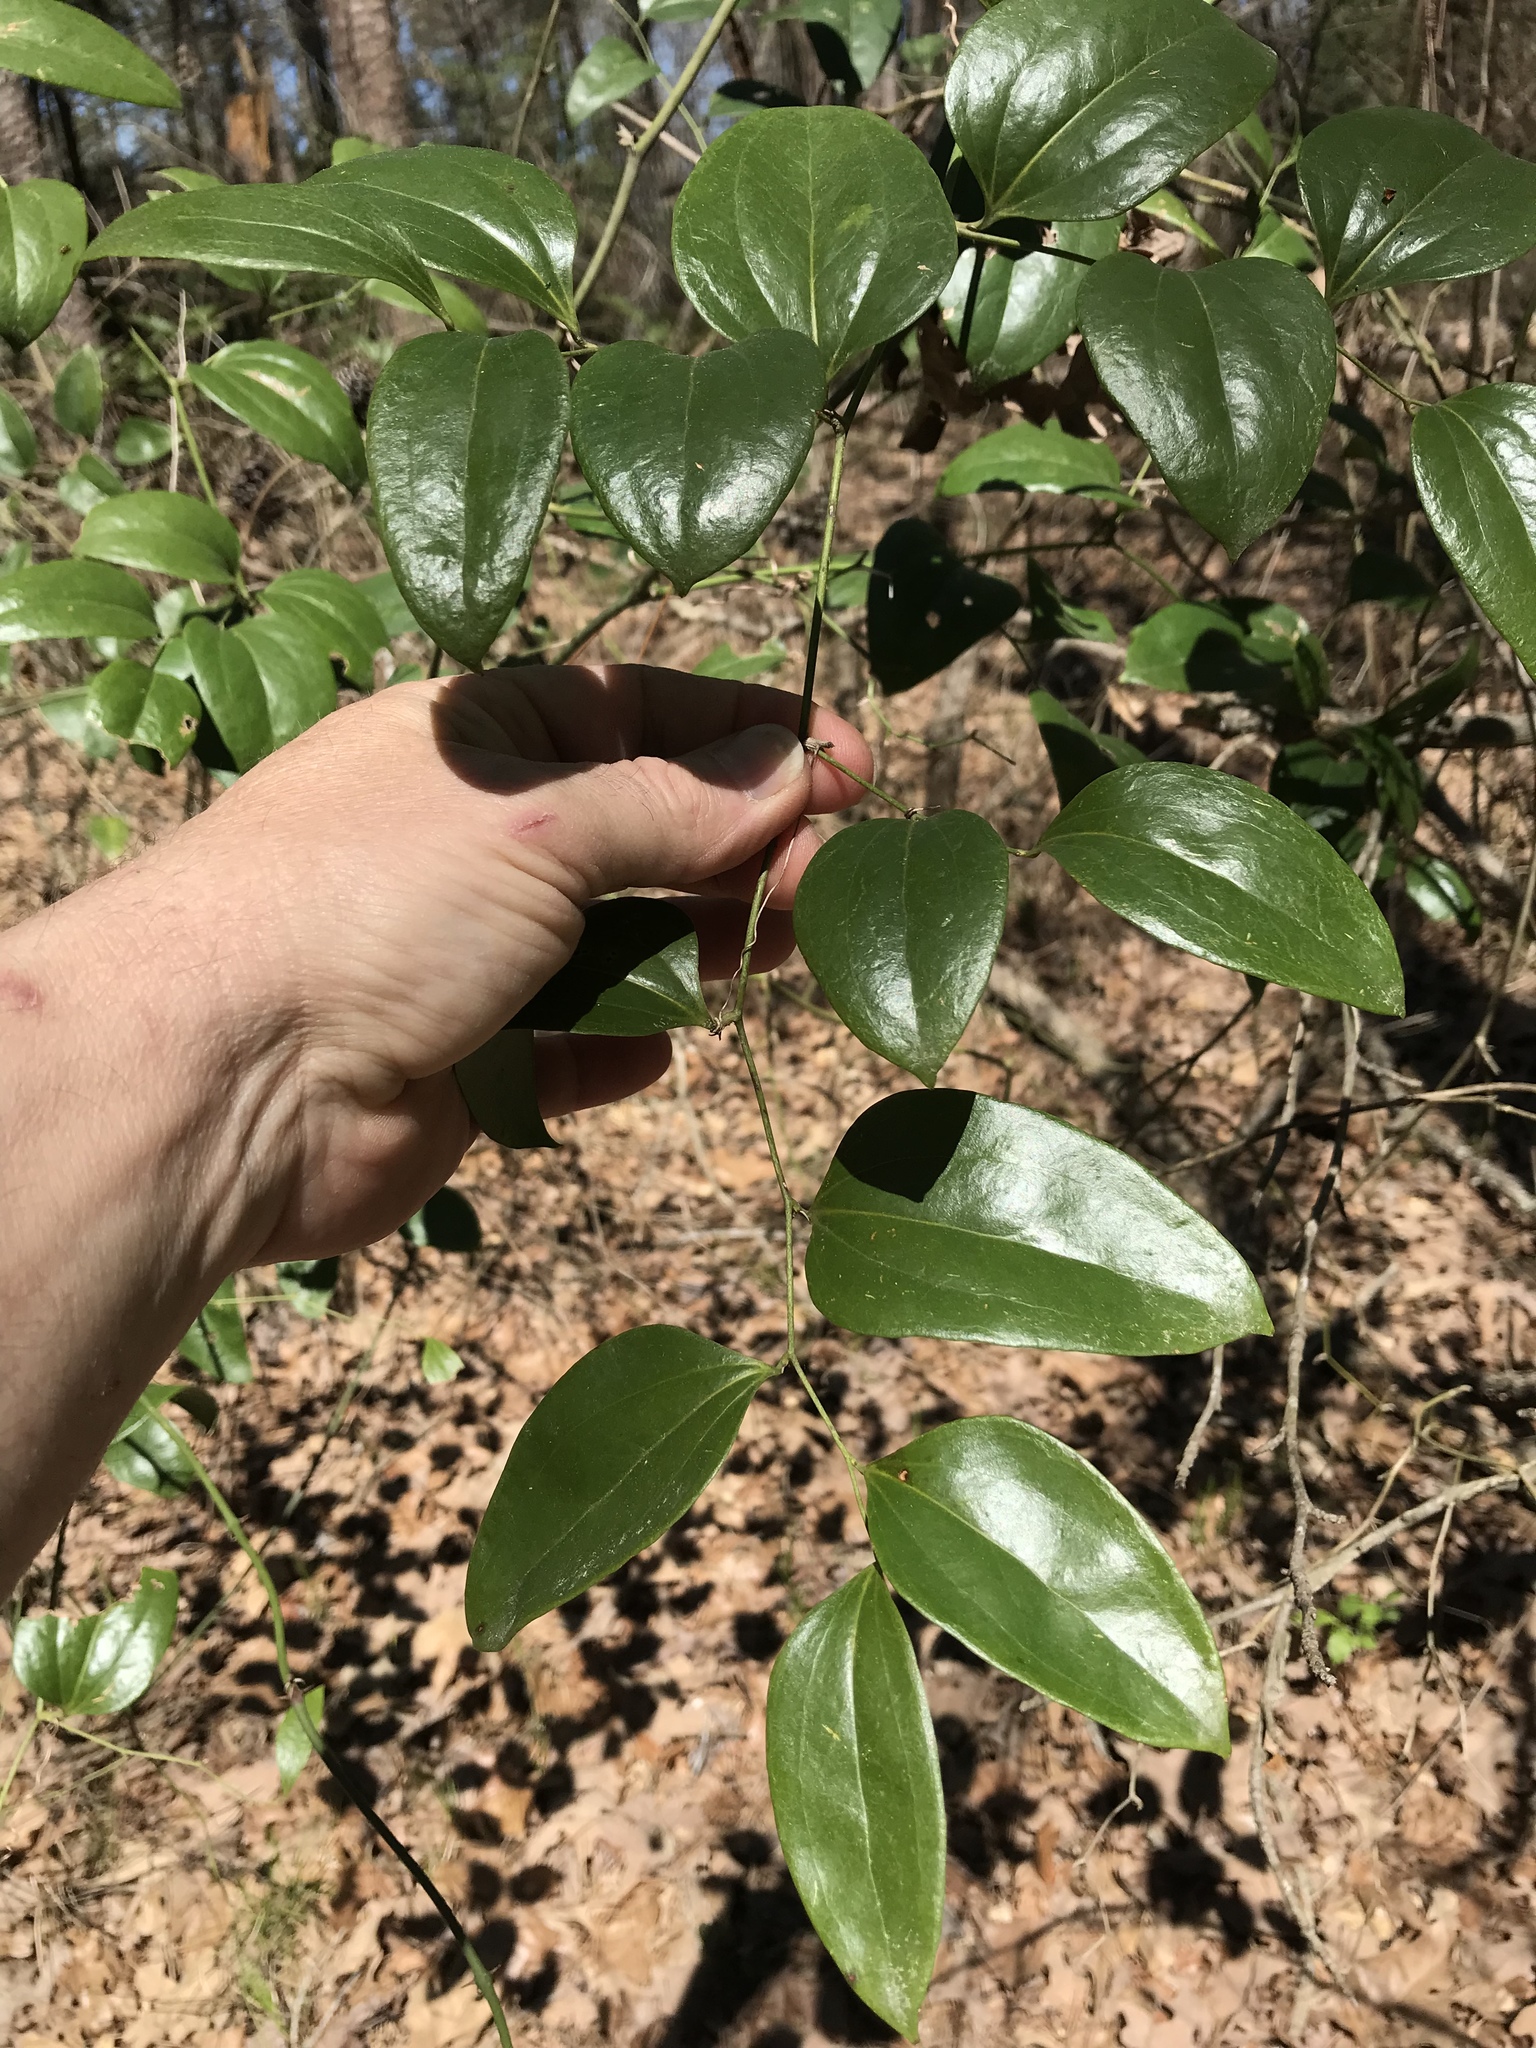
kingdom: Plantae
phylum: Tracheophyta
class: Liliopsida
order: Liliales
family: Smilacaceae
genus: Smilax
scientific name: Smilax maritima
